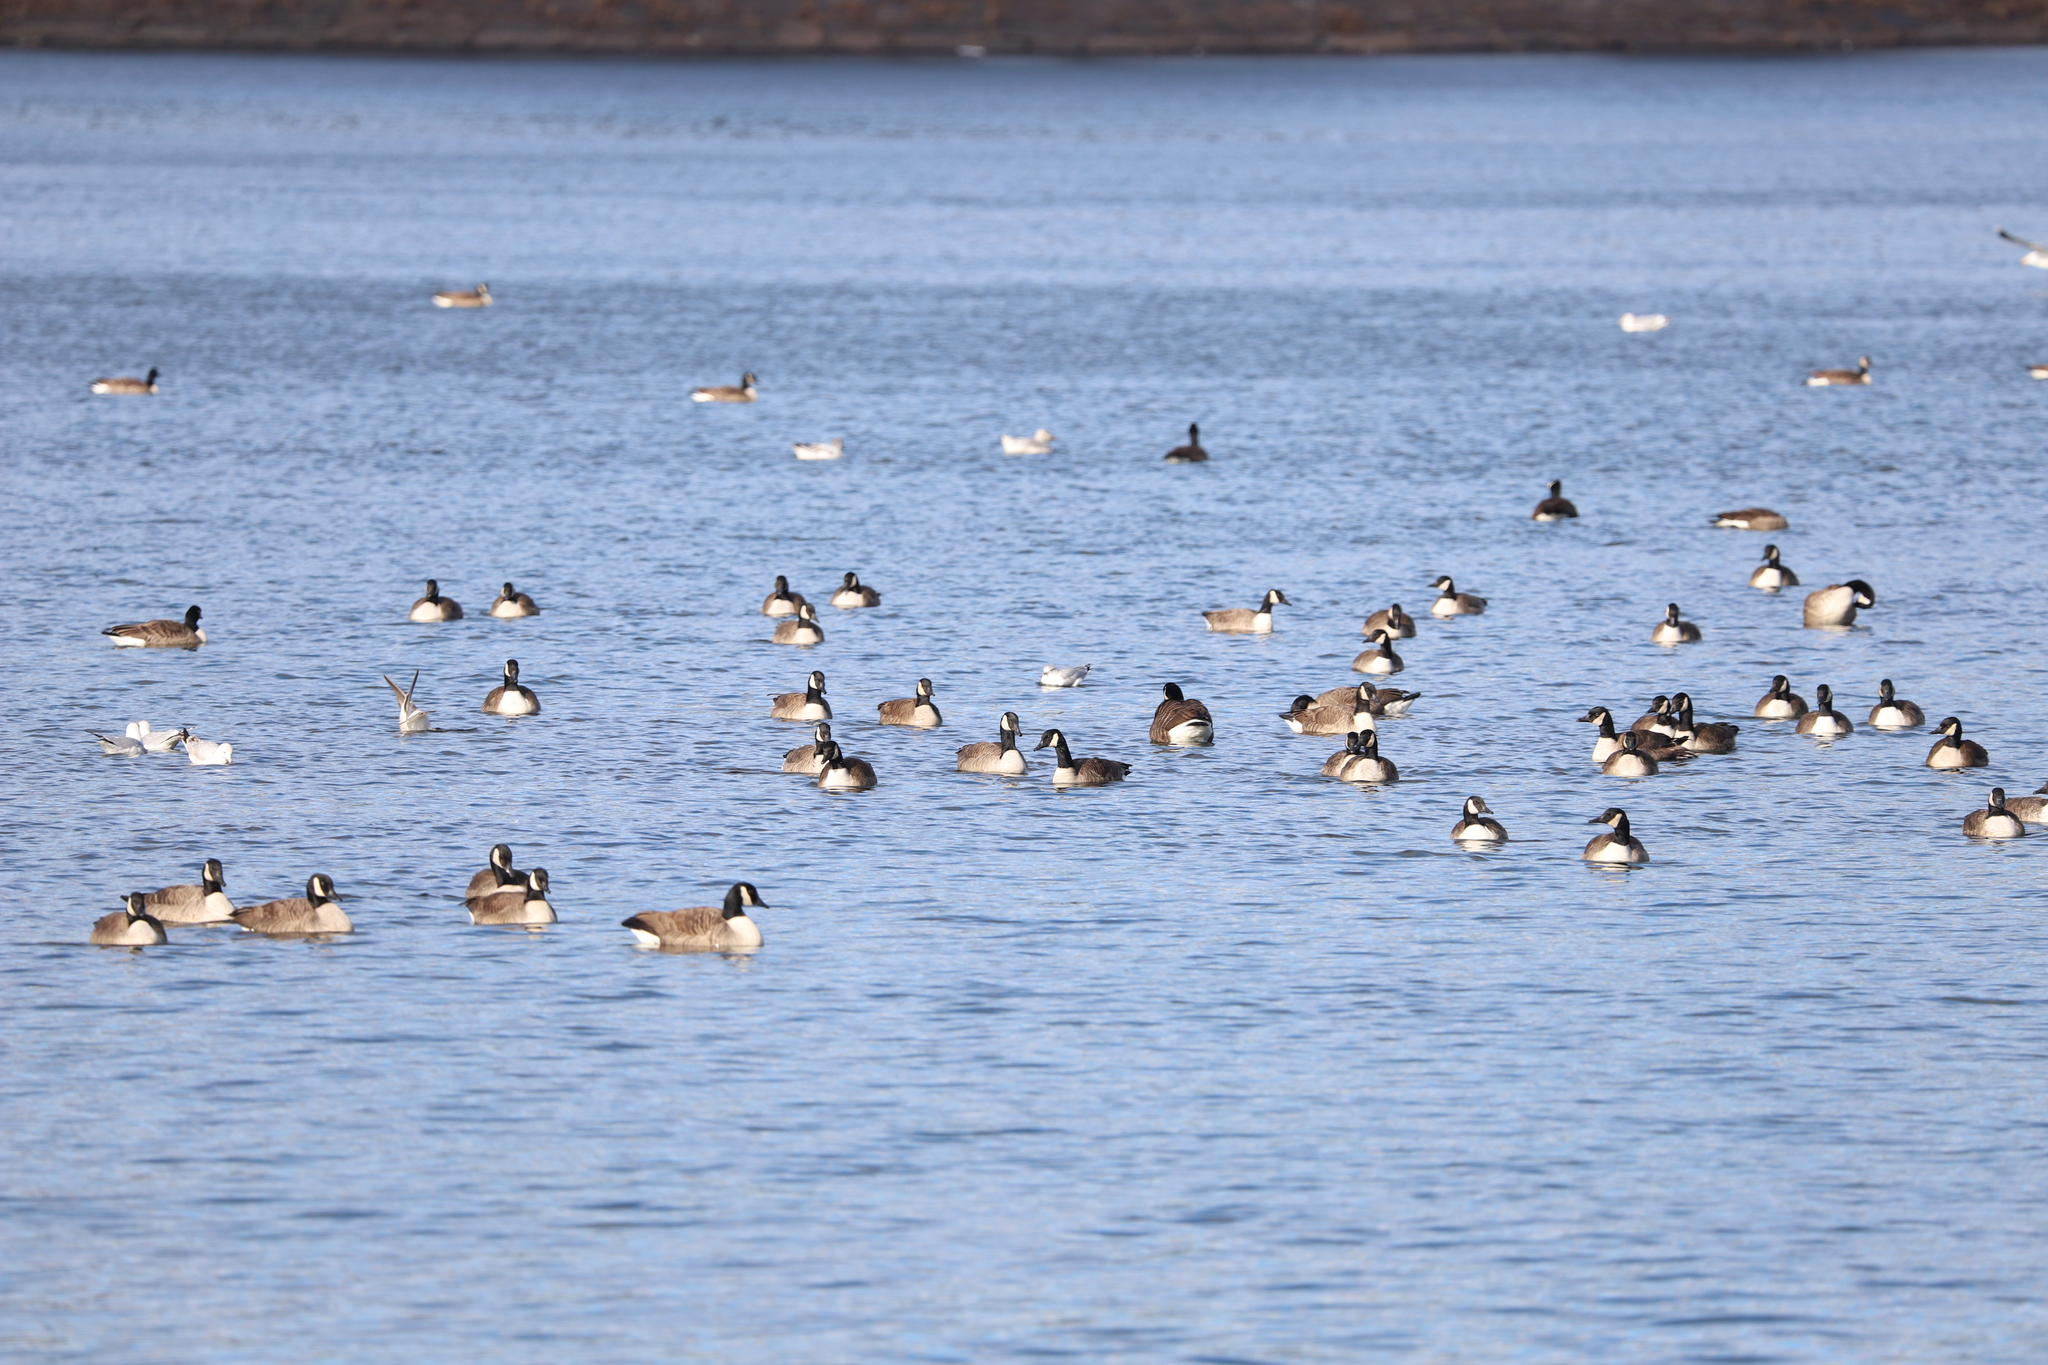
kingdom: Animalia
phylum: Chordata
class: Aves
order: Anseriformes
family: Anatidae
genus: Branta
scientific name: Branta canadensis
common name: Canada goose
